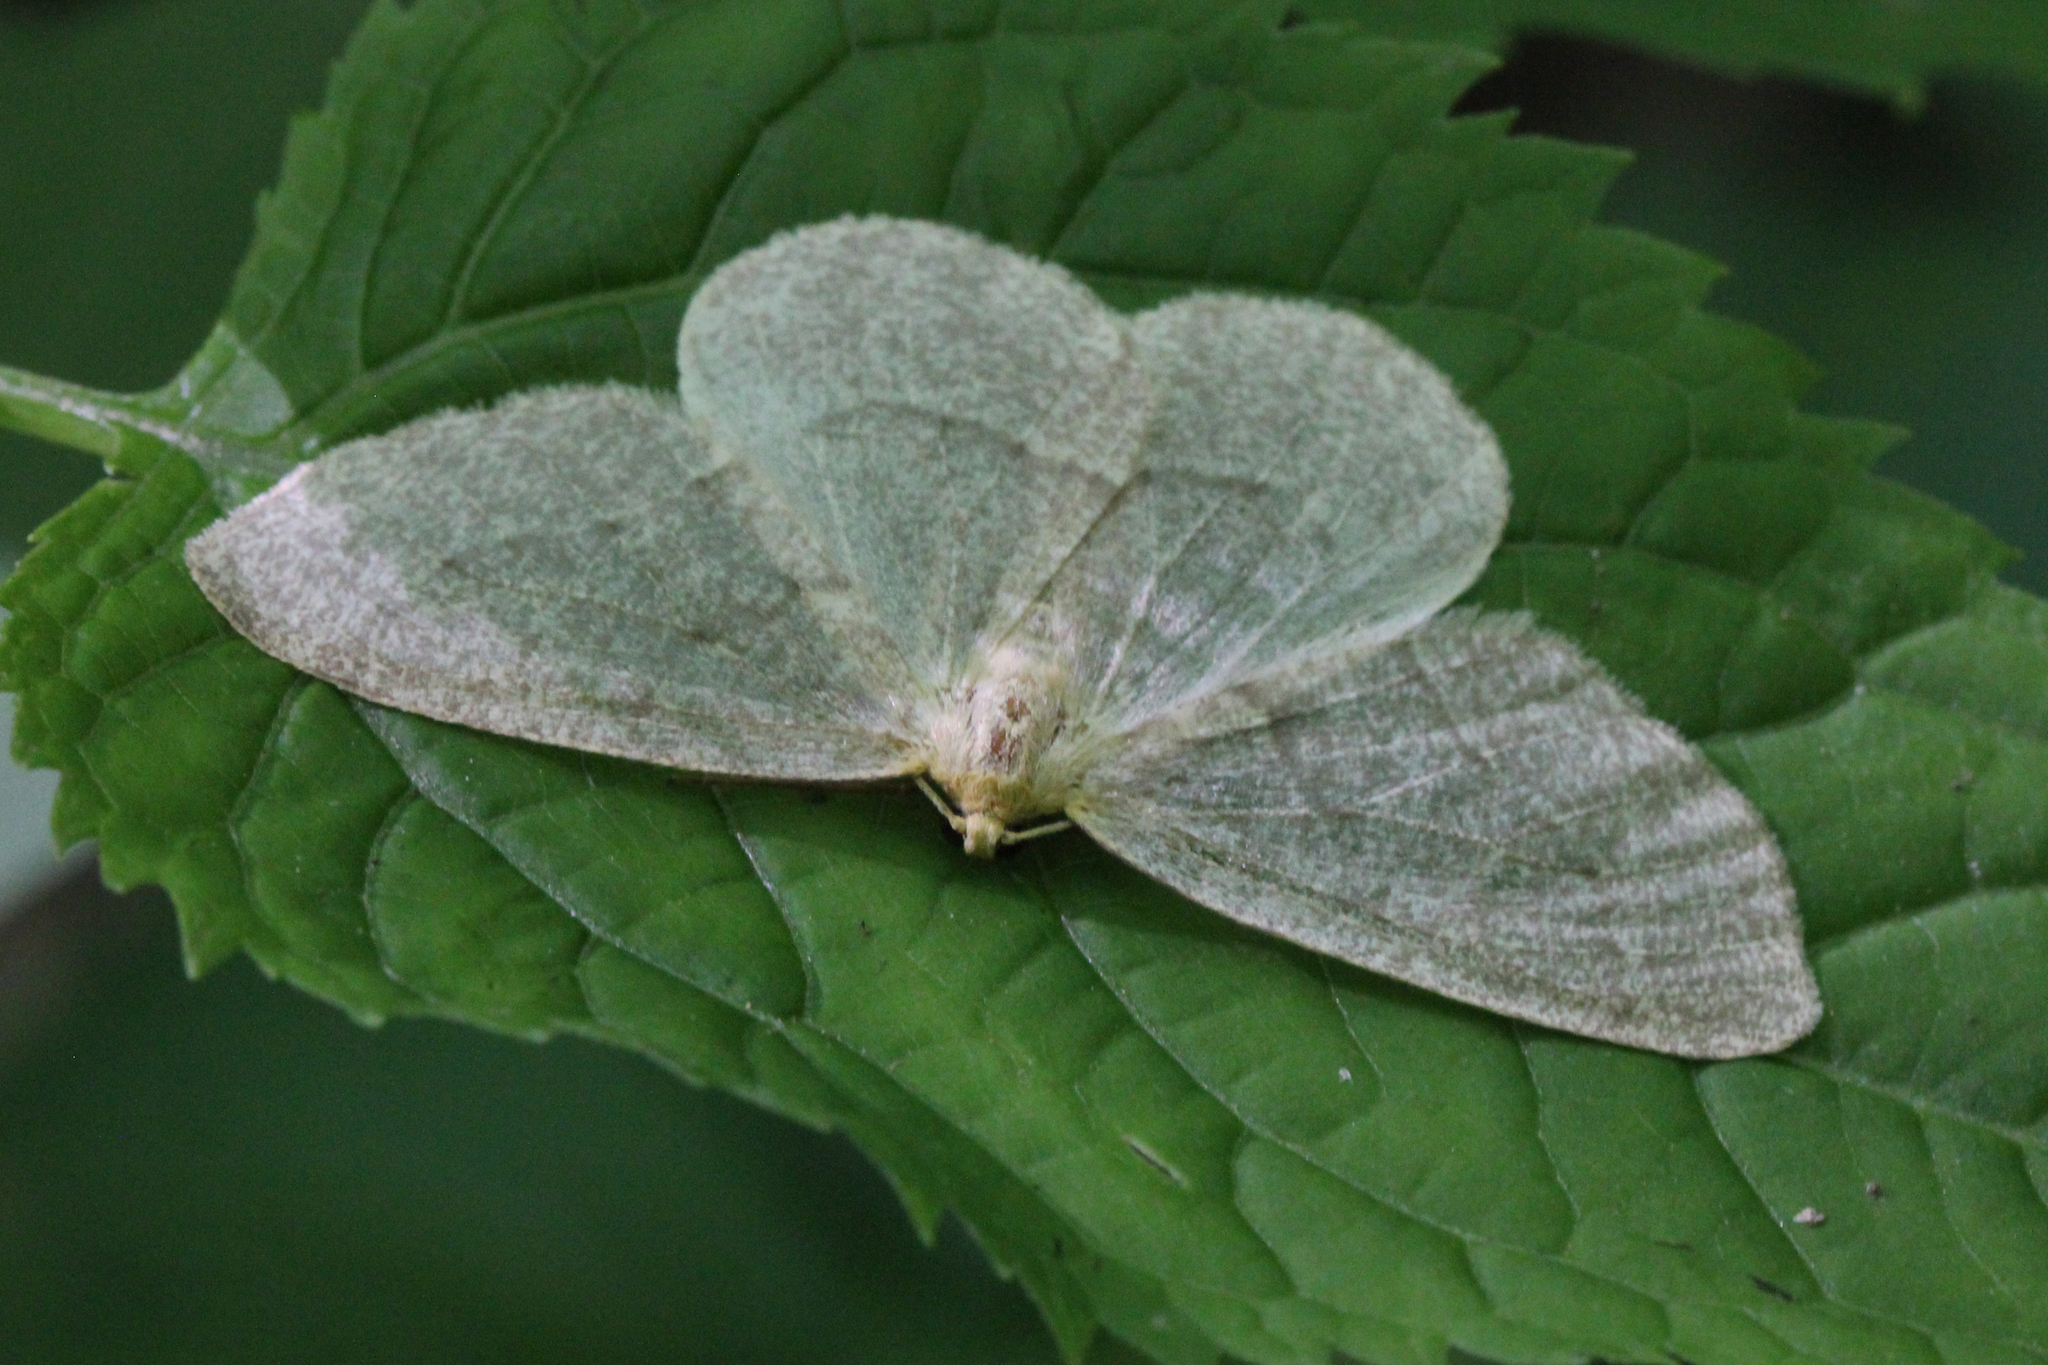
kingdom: Animalia
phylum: Arthropoda
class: Insecta
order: Lepidoptera
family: Geometridae
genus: Lambdina
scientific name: Lambdina fervidaria
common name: Curve-lined looper moth
